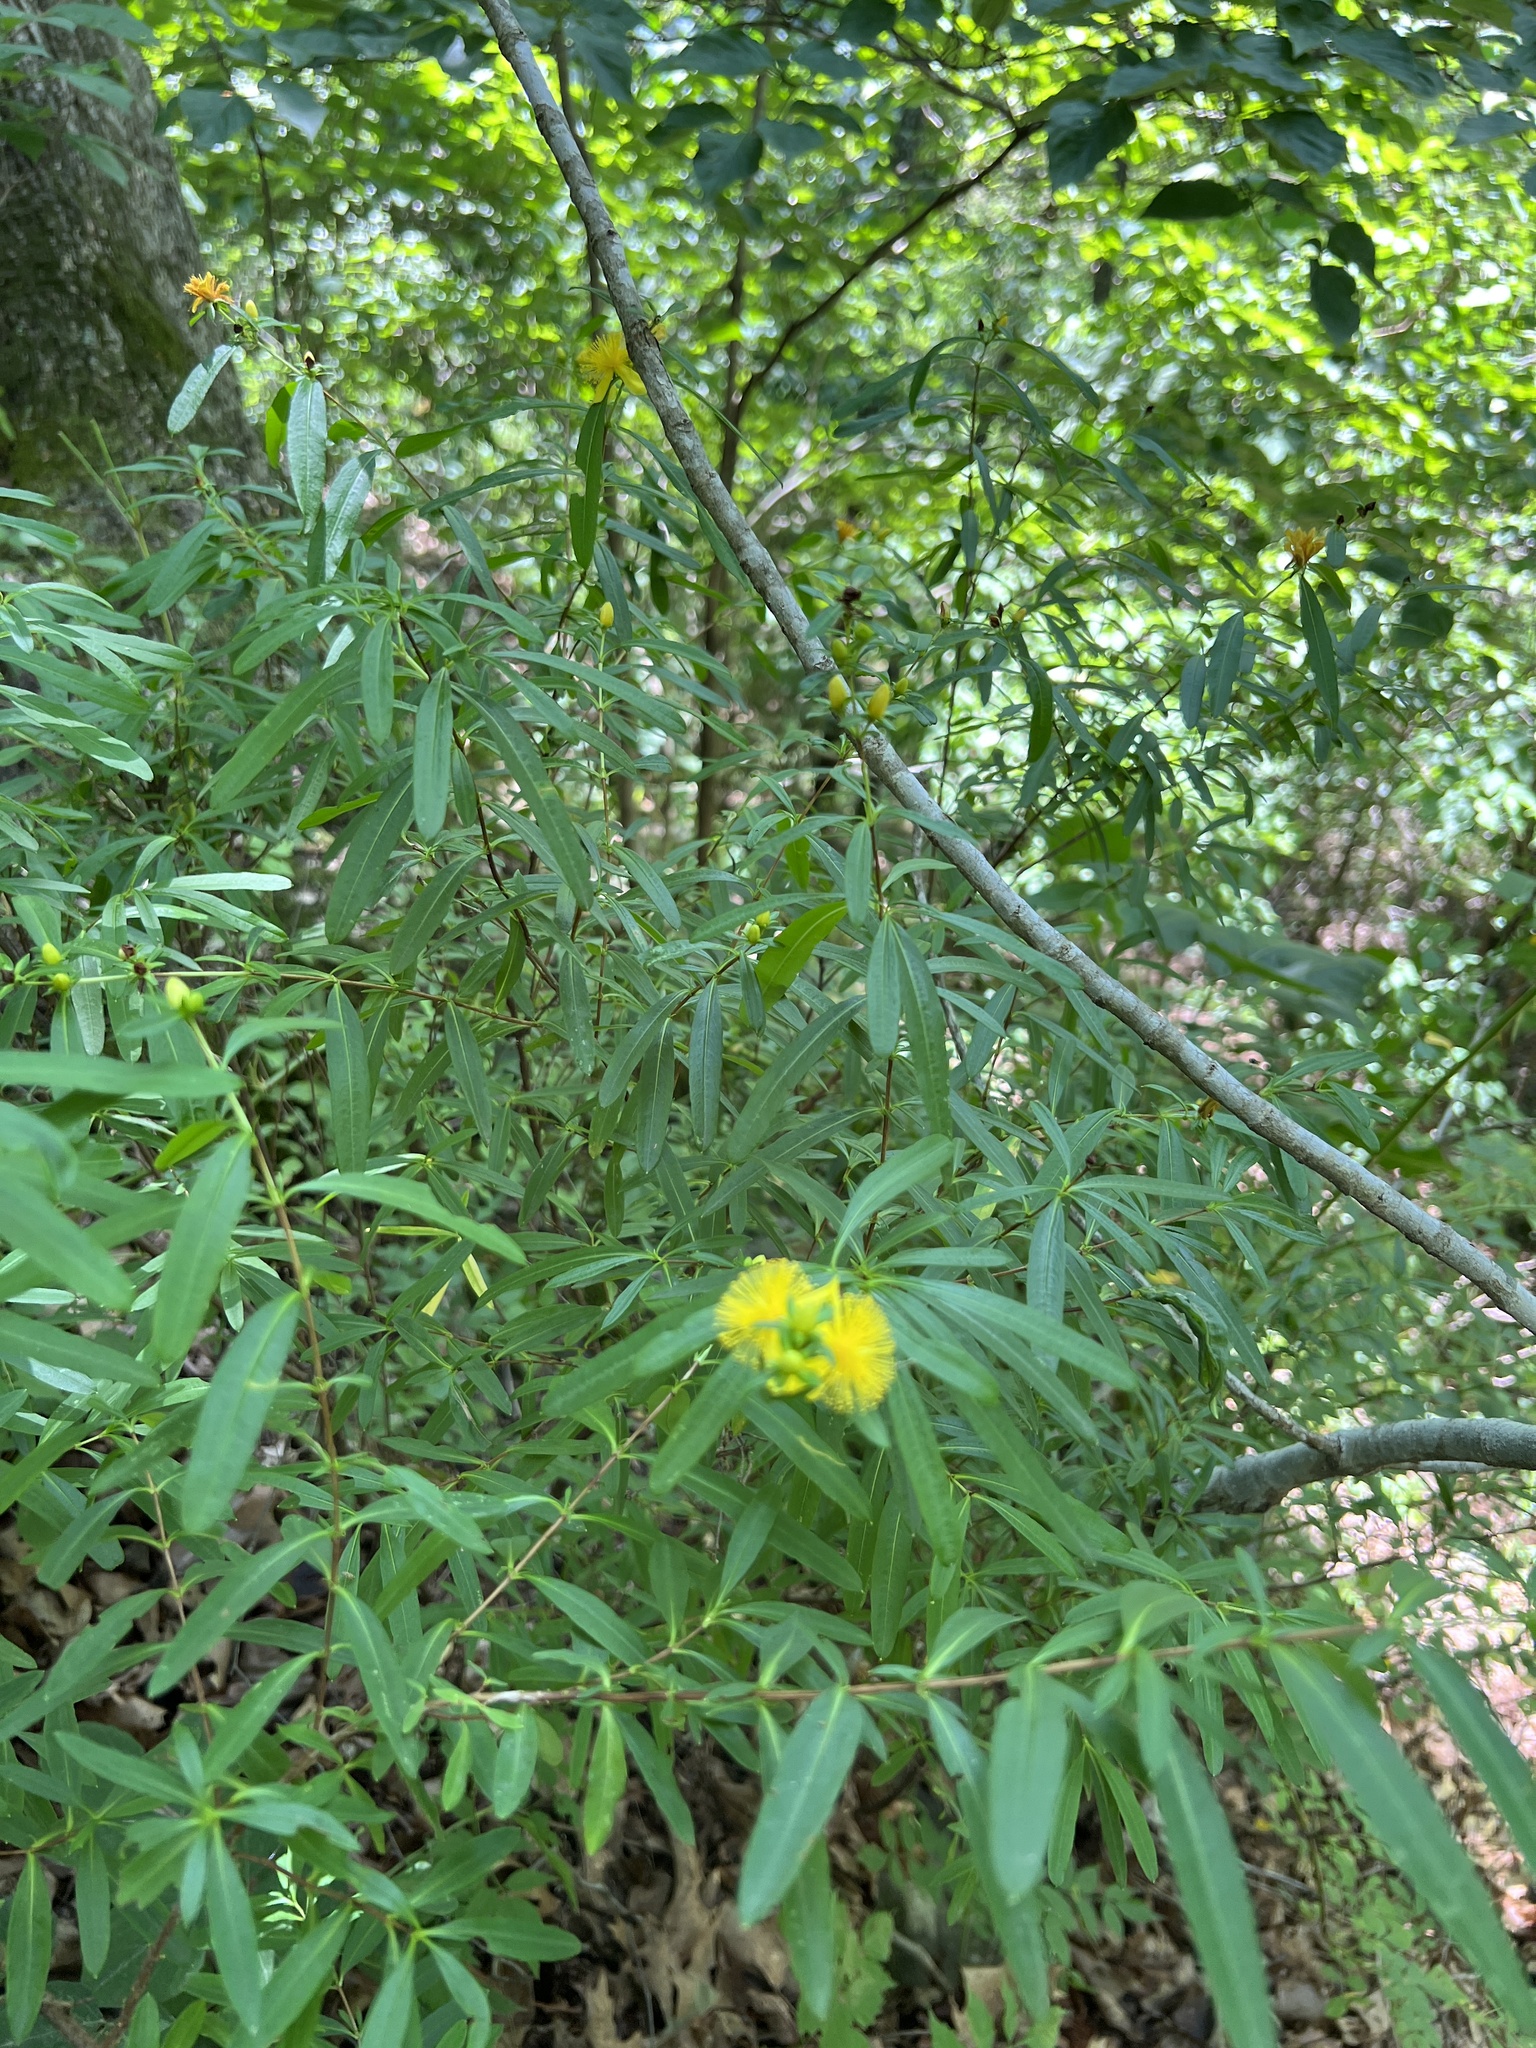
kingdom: Plantae
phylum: Tracheophyta
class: Magnoliopsida
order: Malpighiales
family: Hypericaceae
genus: Hypericum
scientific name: Hypericum prolificum
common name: Shrubby st. john's-wort
